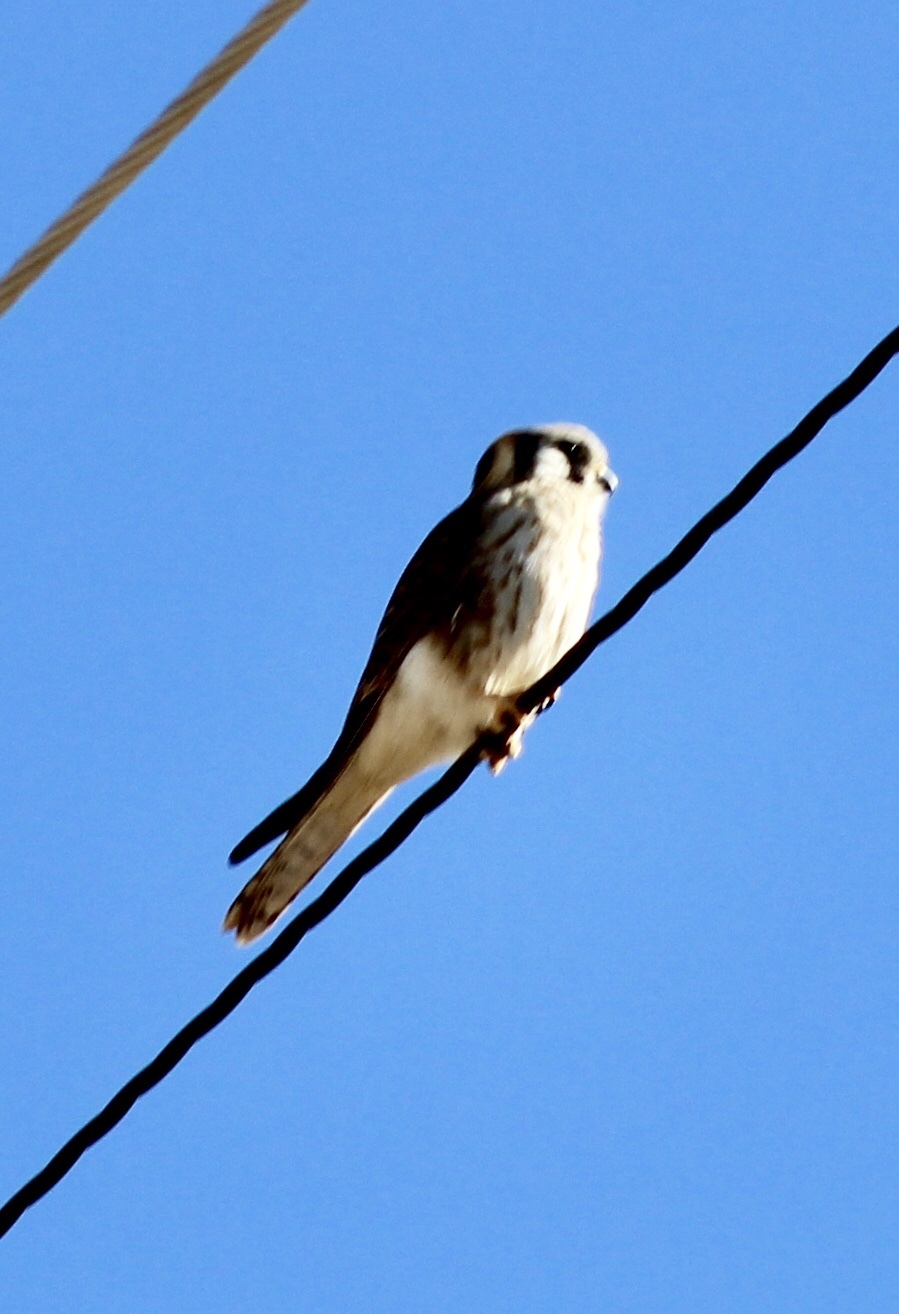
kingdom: Animalia
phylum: Chordata
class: Aves
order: Falconiformes
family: Falconidae
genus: Falco
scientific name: Falco sparverius
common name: American kestrel
